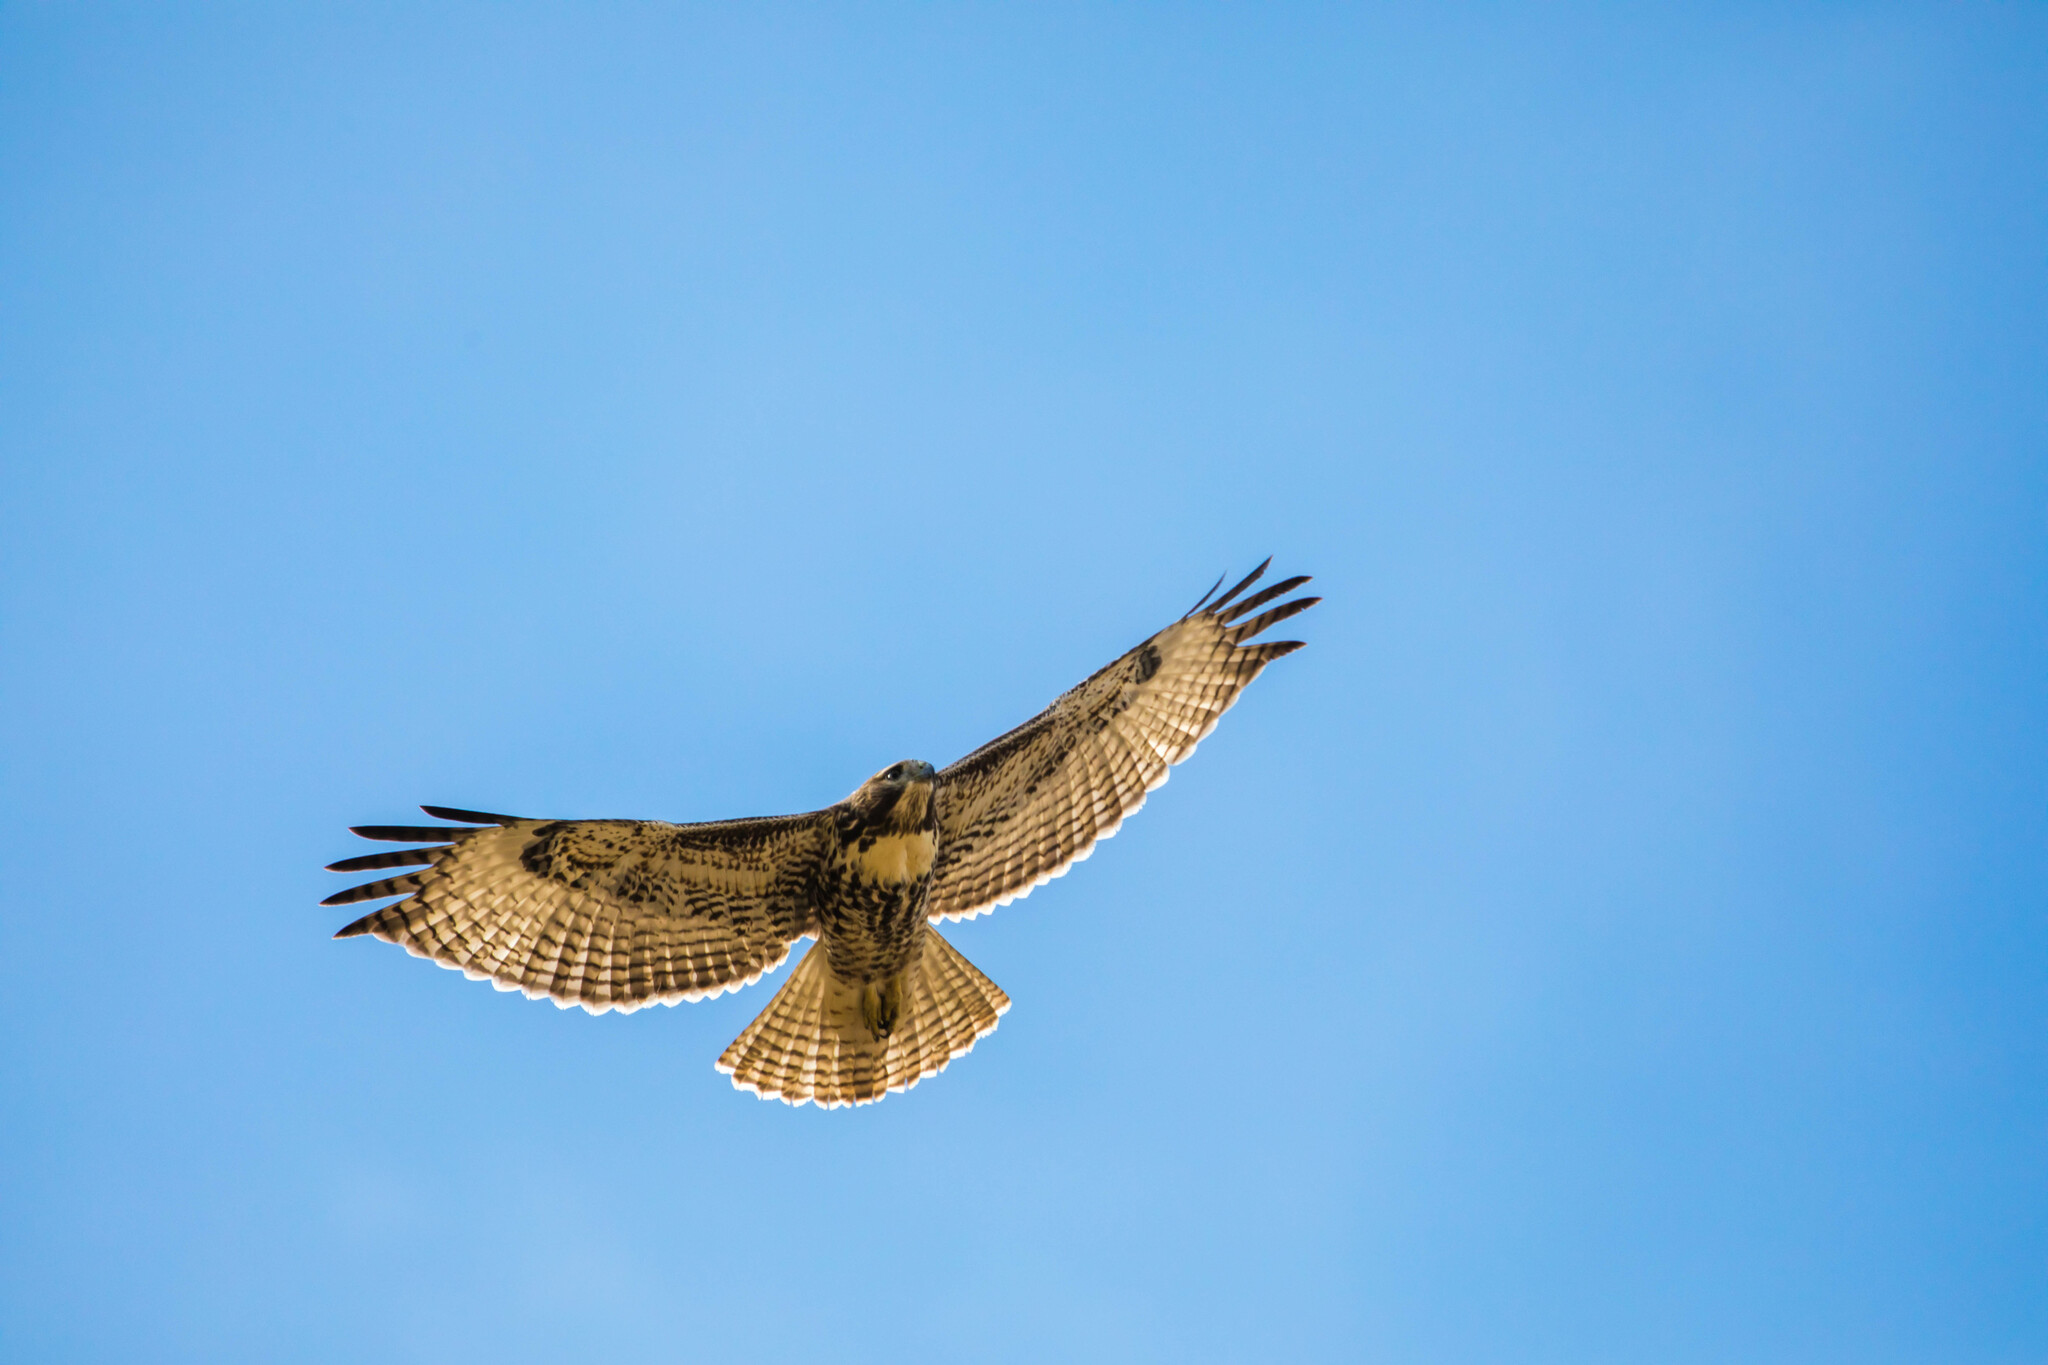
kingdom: Animalia
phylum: Chordata
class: Aves
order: Accipitriformes
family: Accipitridae
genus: Buteo
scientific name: Buteo jamaicensis
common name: Red-tailed hawk
